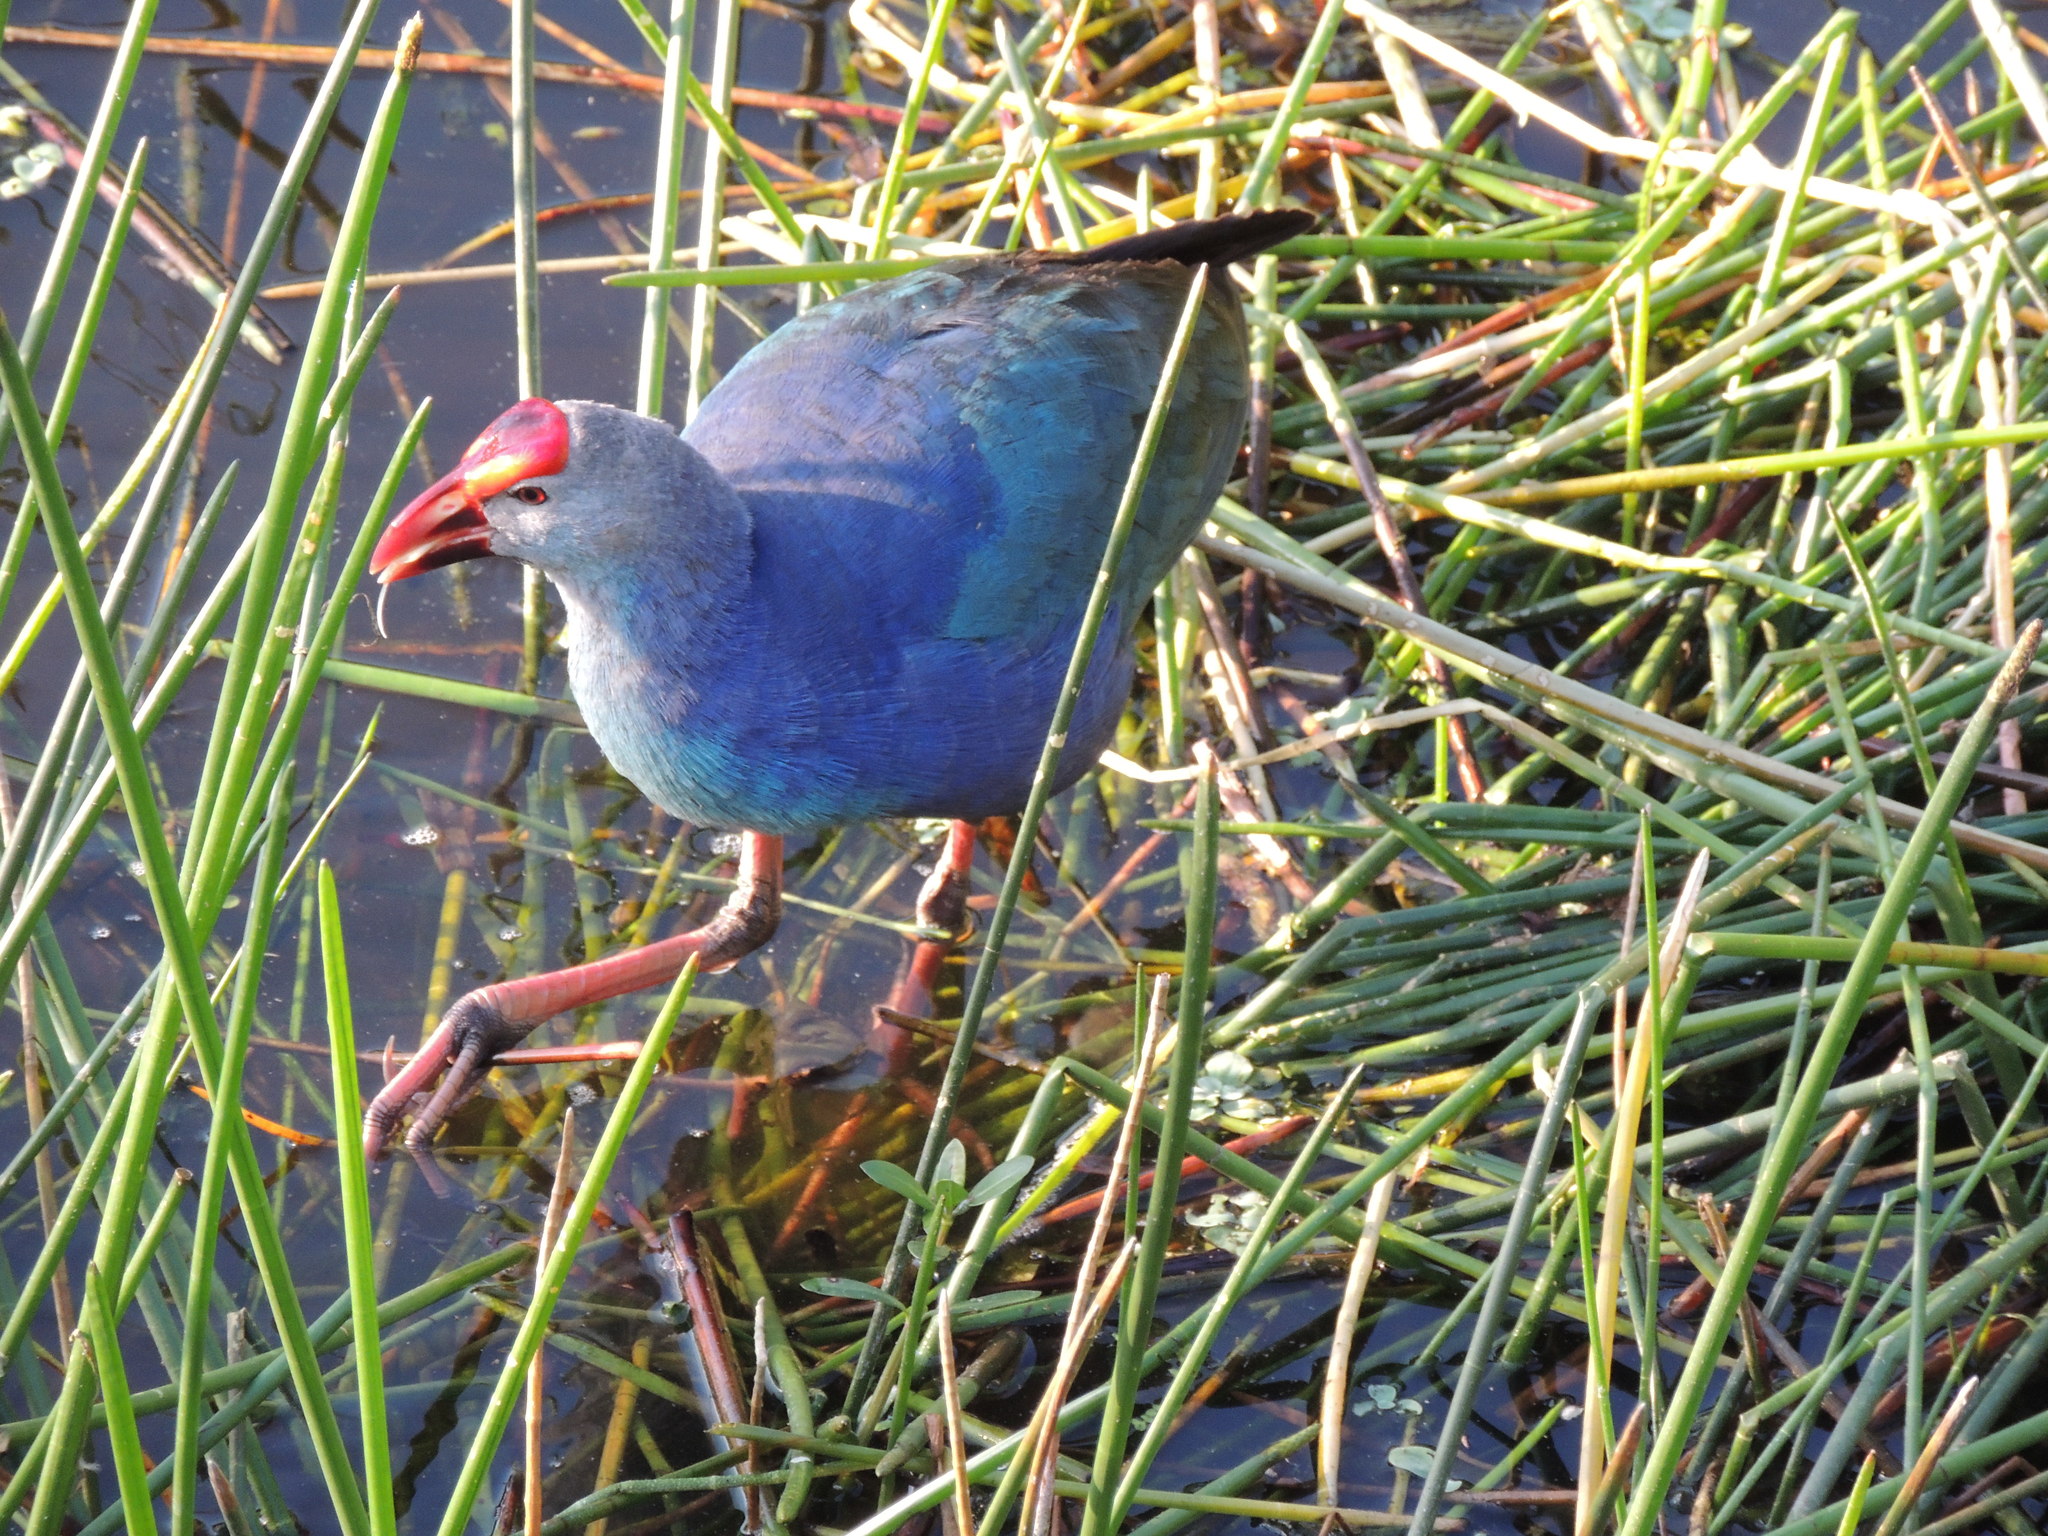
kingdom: Animalia
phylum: Chordata
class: Aves
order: Gruiformes
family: Rallidae
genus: Porphyrio
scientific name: Porphyrio porphyrio
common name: Purple swamphen
